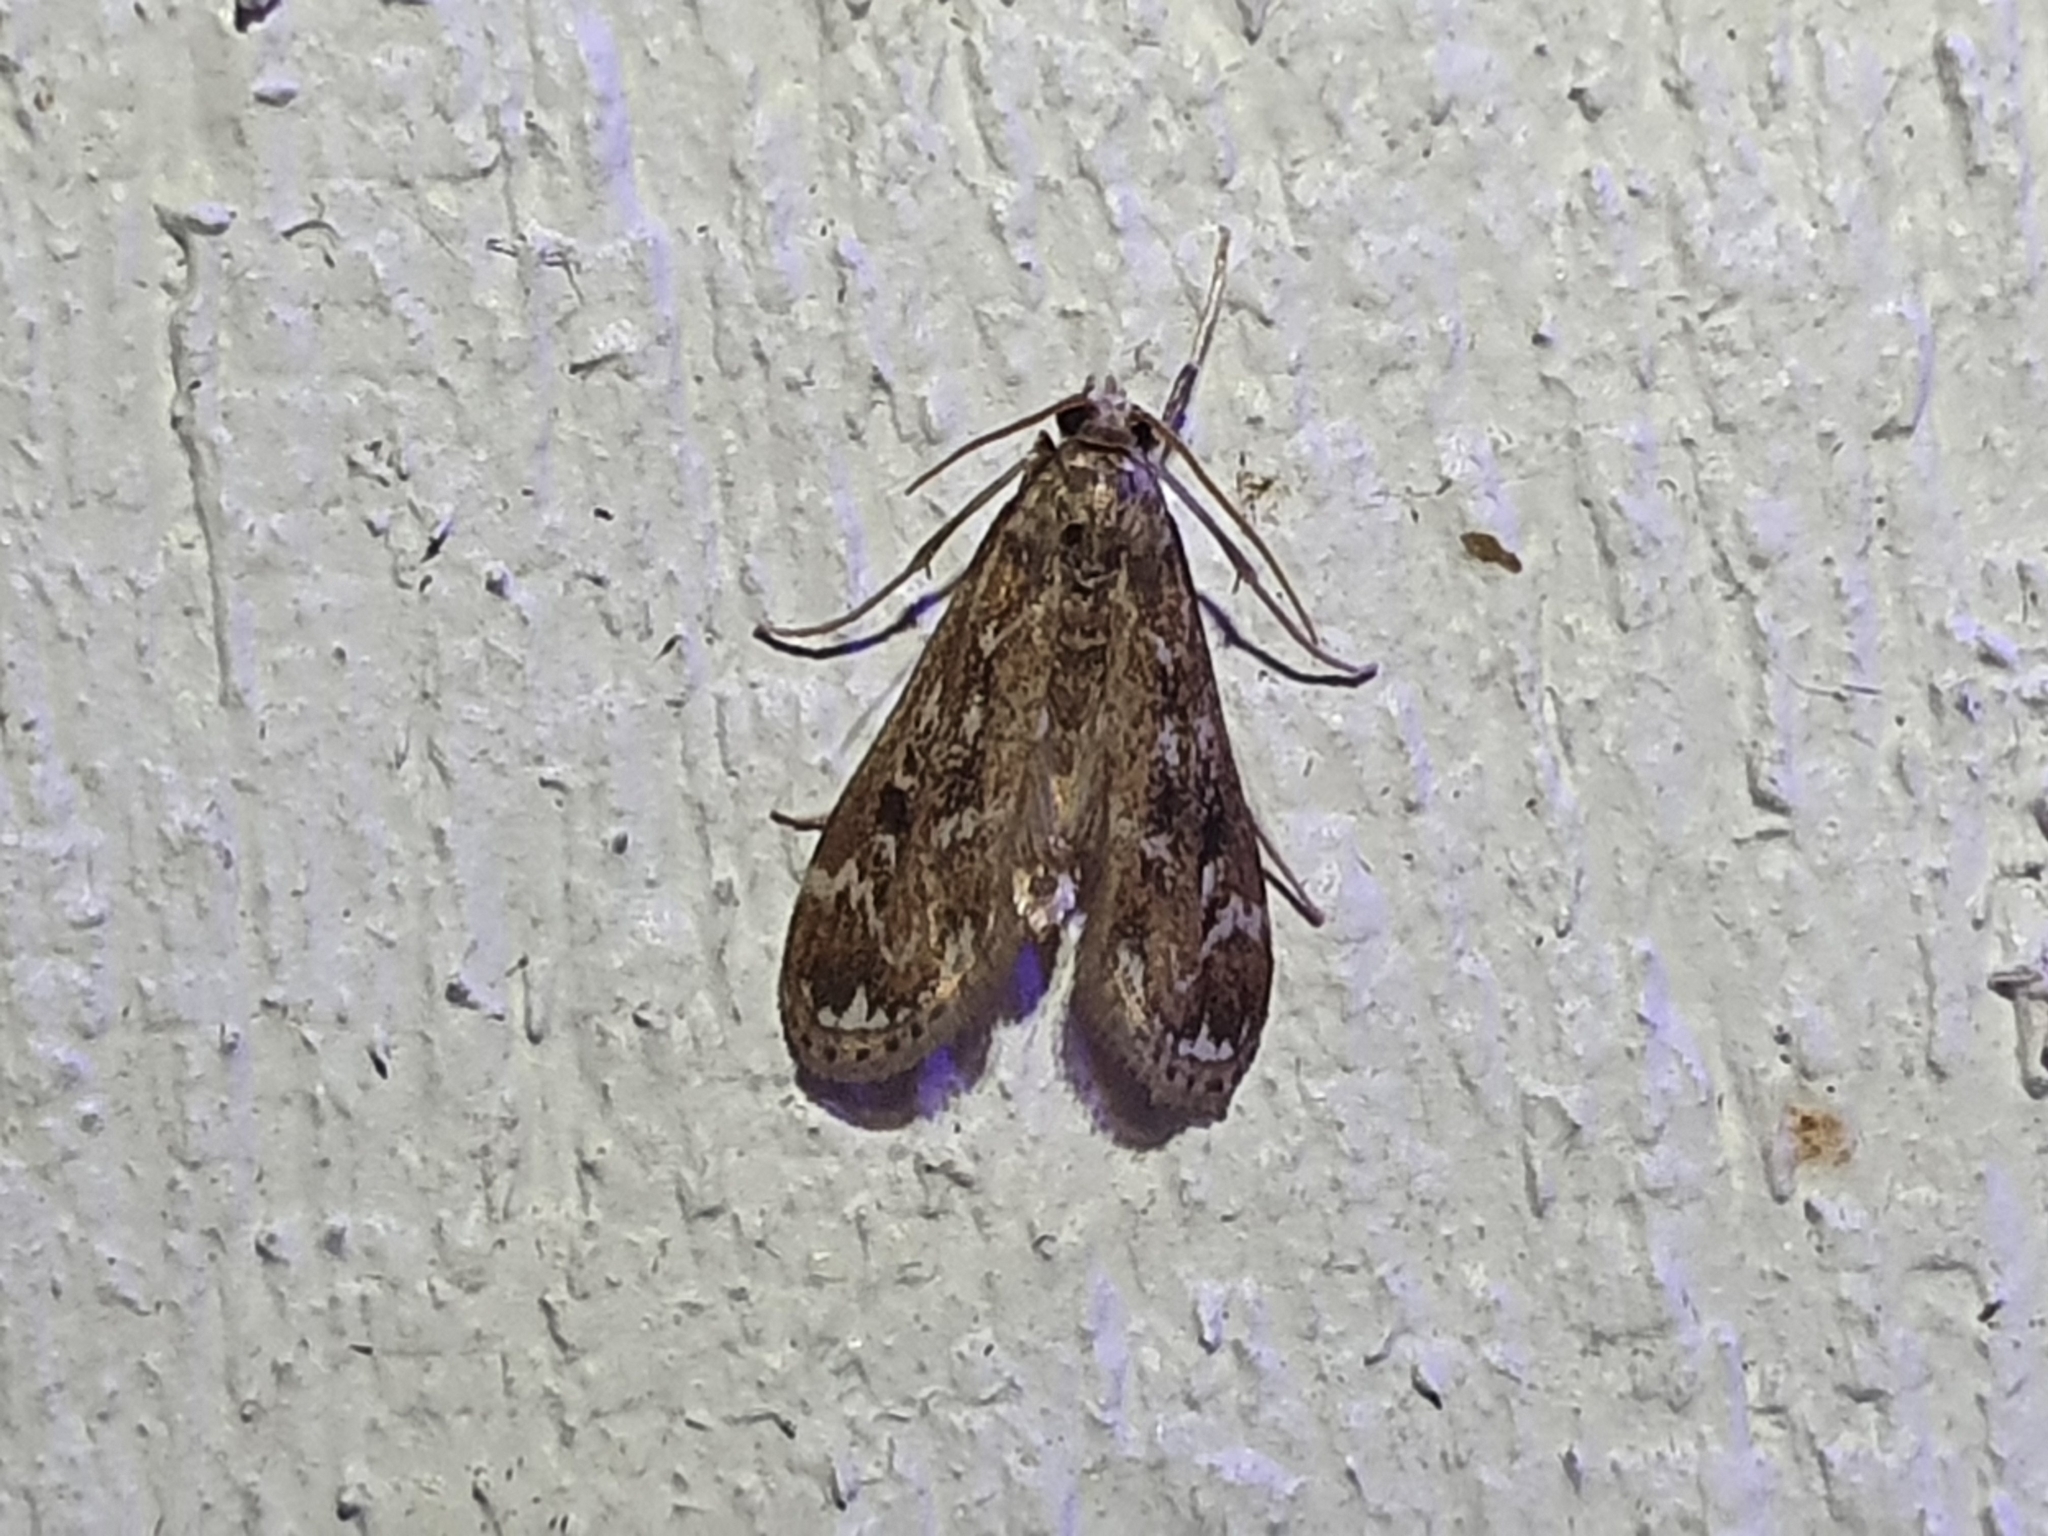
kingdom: Animalia
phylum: Arthropoda
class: Insecta
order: Lepidoptera
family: Crambidae
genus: Hygraula
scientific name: Hygraula nitens
